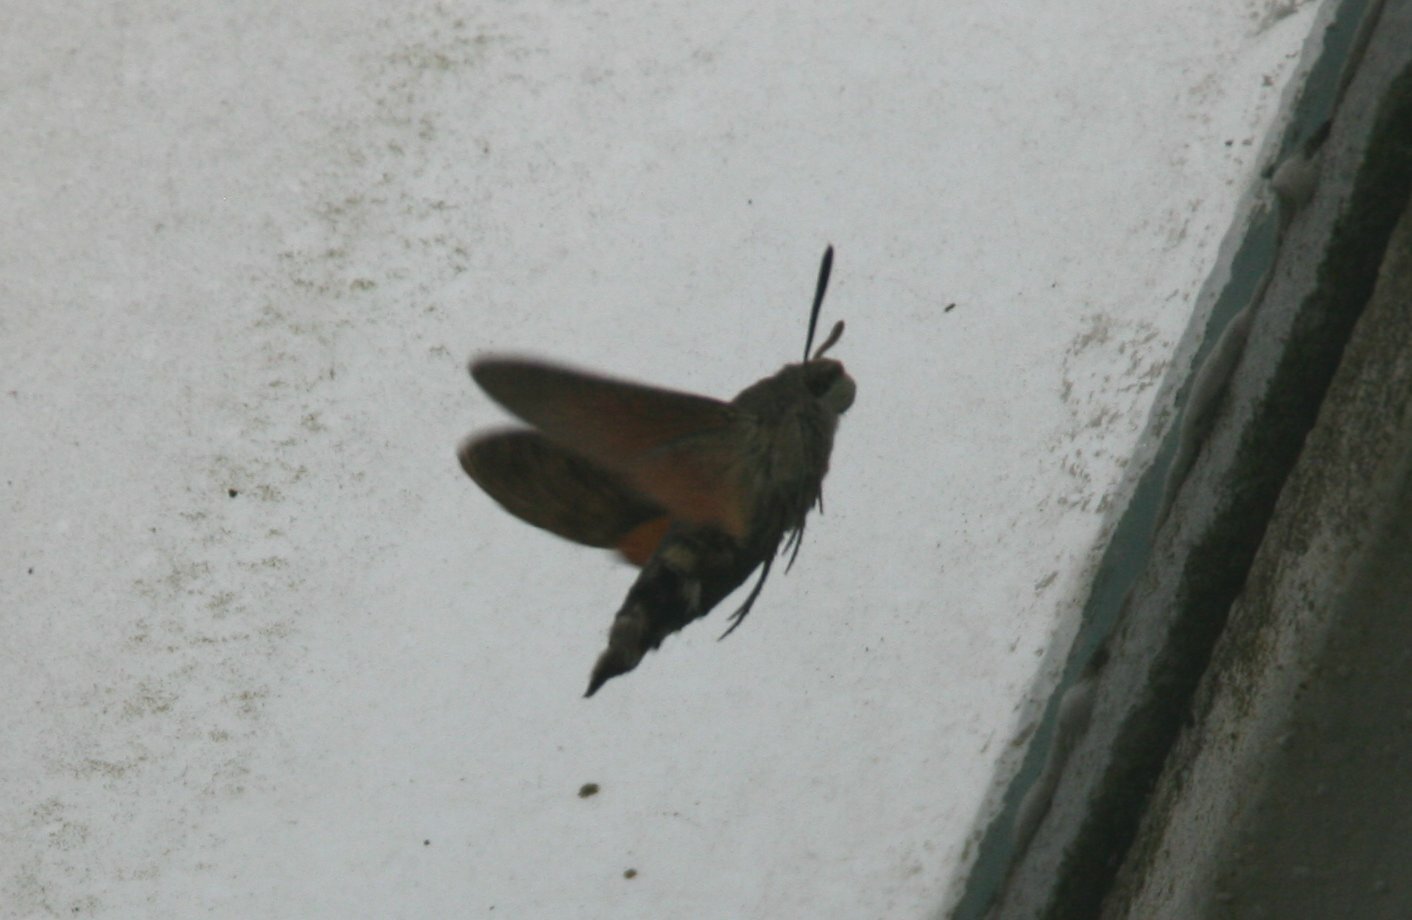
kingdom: Animalia
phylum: Arthropoda
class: Insecta
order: Lepidoptera
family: Sphingidae
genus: Macroglossum
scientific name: Macroglossum stellatarum
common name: Humming-bird hawk-moth
